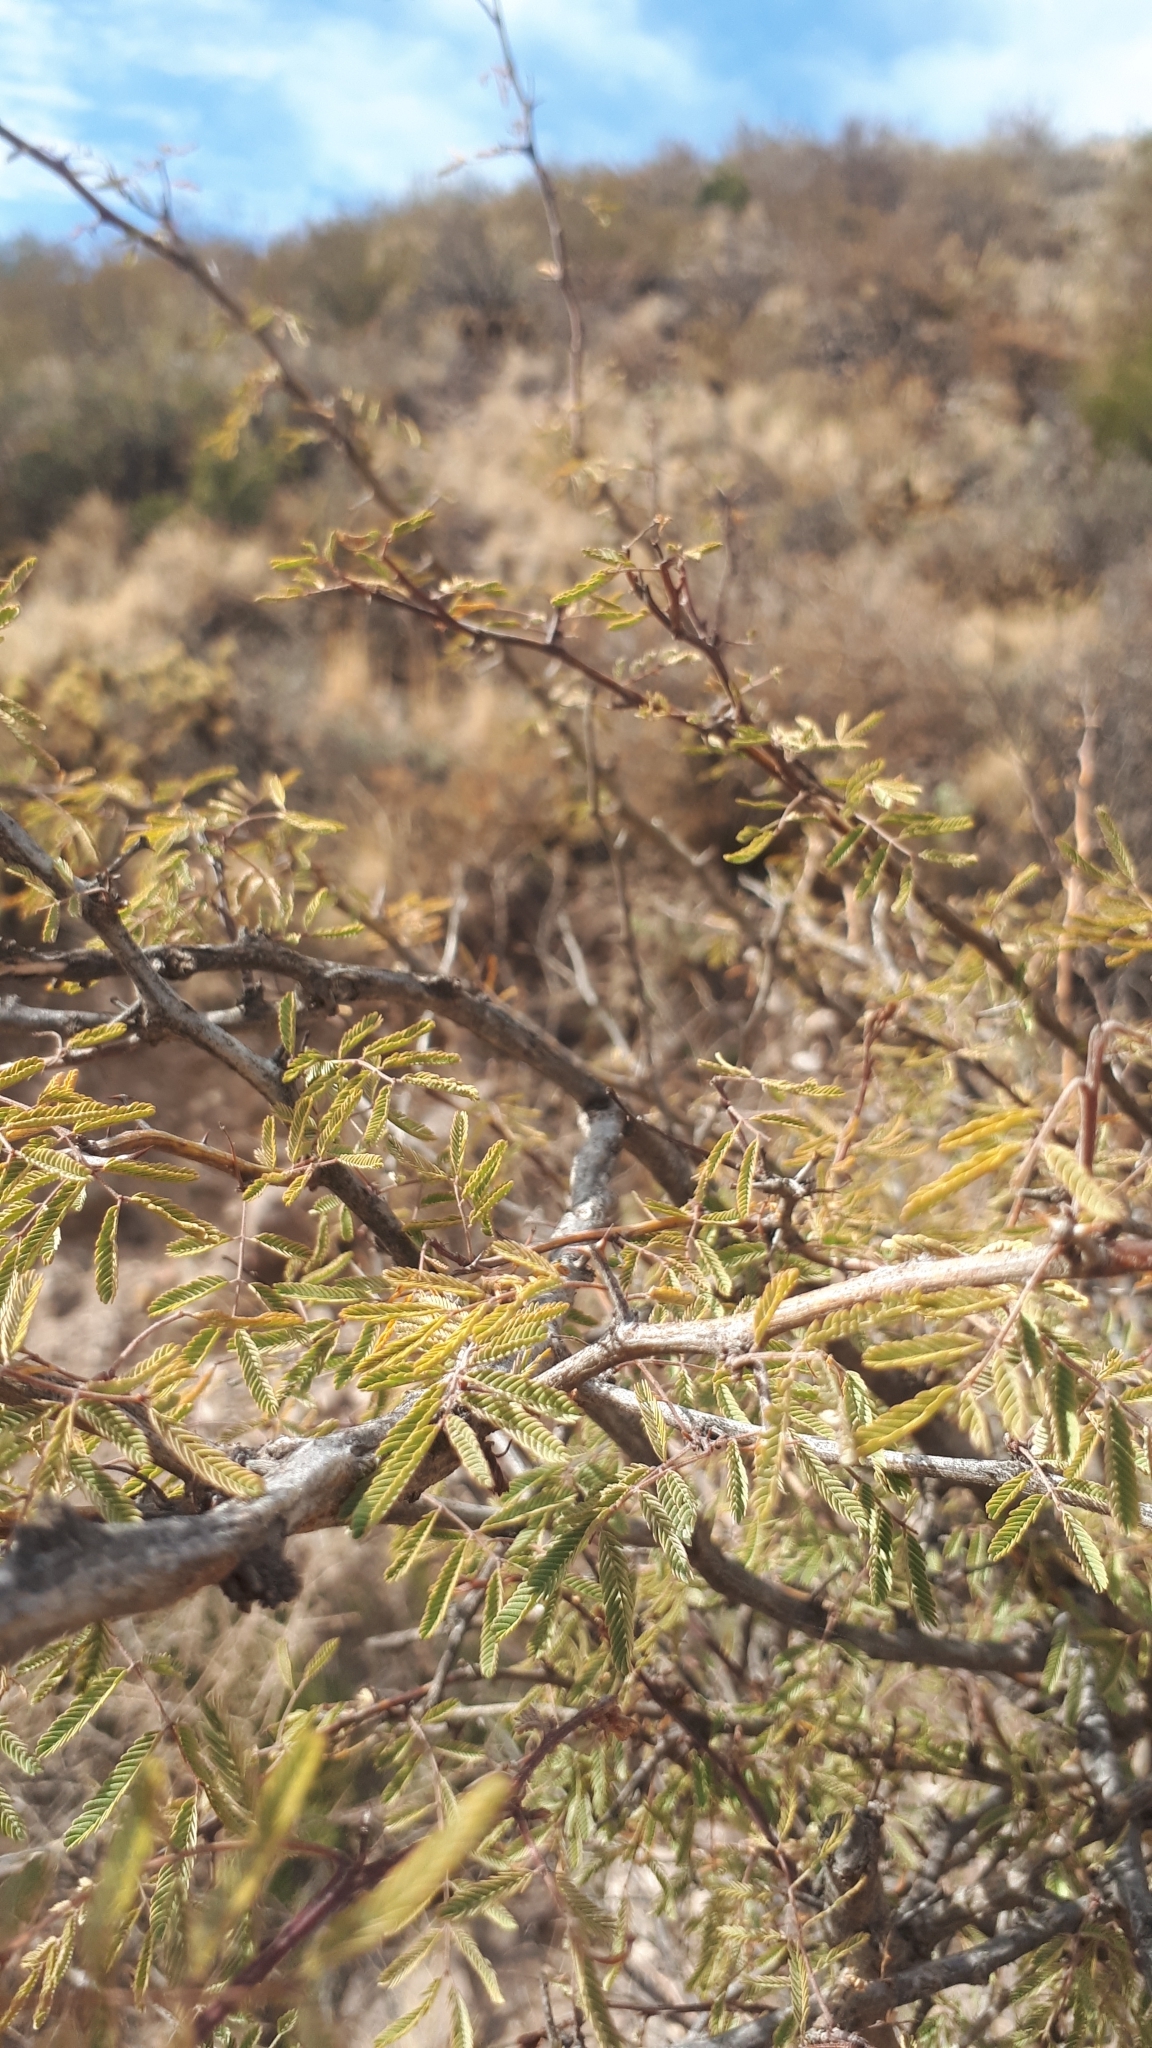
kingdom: Plantae
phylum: Tracheophyta
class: Magnoliopsida
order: Fabales
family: Fabaceae
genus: Senegalia
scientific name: Senegalia gilliesii
